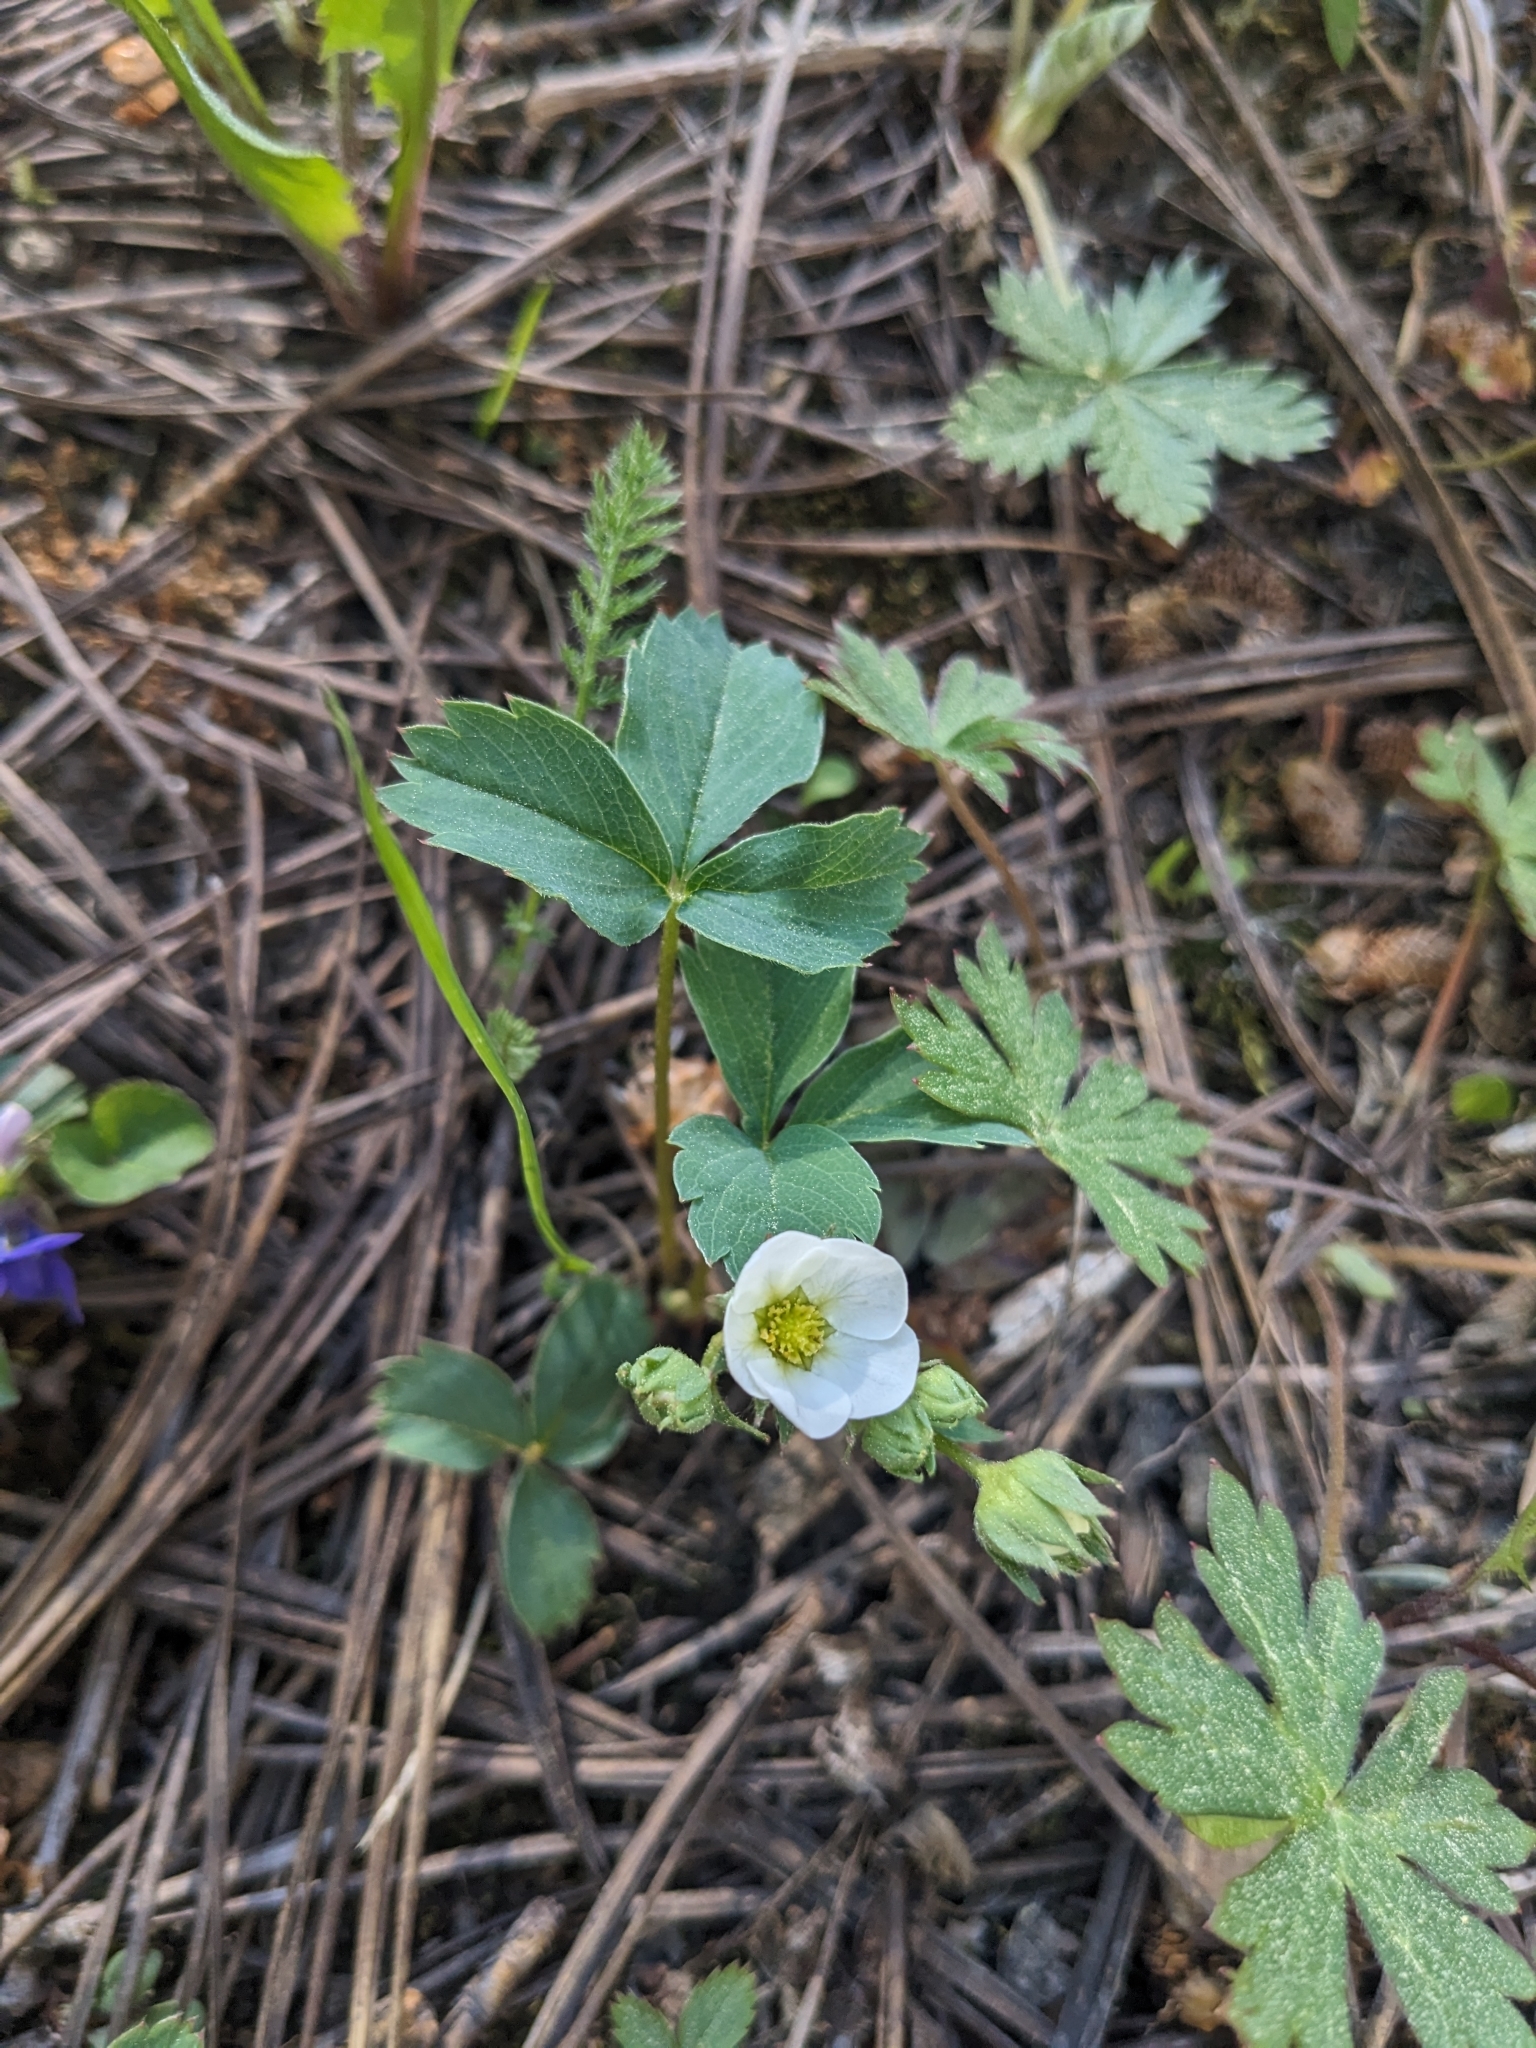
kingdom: Plantae
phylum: Tracheophyta
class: Magnoliopsida
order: Rosales
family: Rosaceae
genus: Fragaria
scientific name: Fragaria virginiana
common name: Thickleaved wild strawberry
